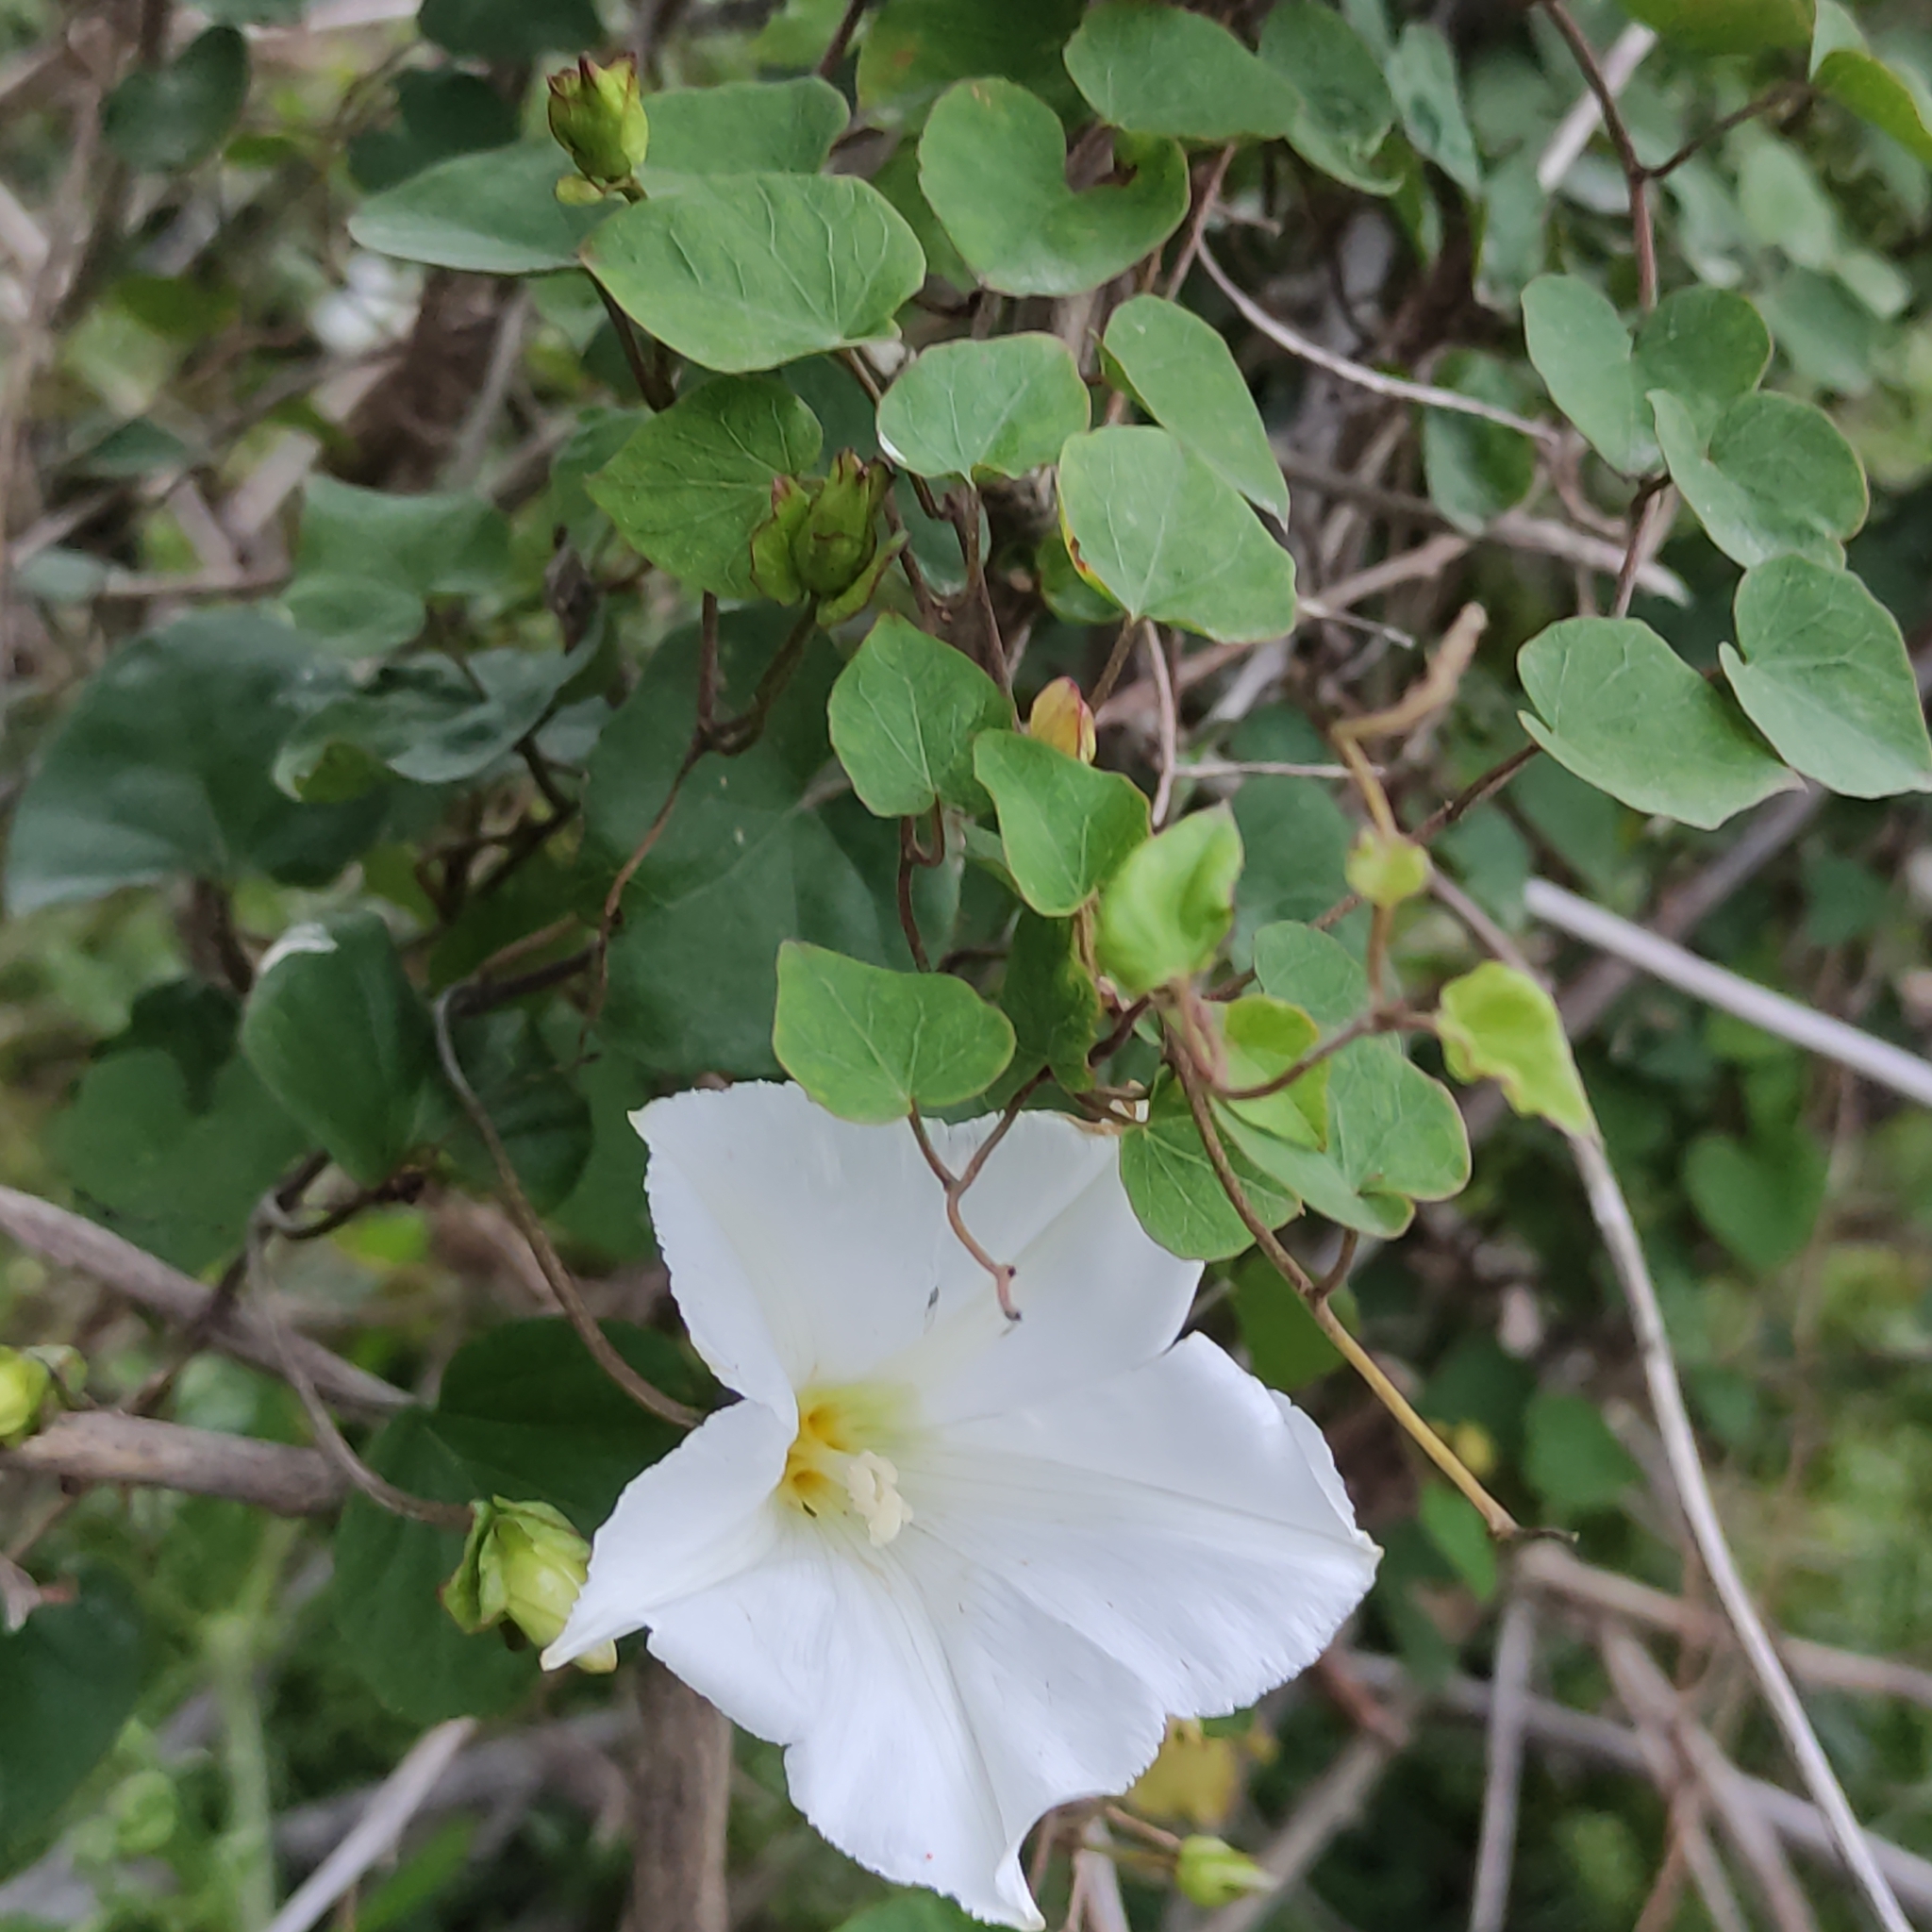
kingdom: Plantae
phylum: Tracheophyta
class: Magnoliopsida
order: Solanales
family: Convolvulaceae
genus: Calystegia
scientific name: Calystegia tuguriorum
